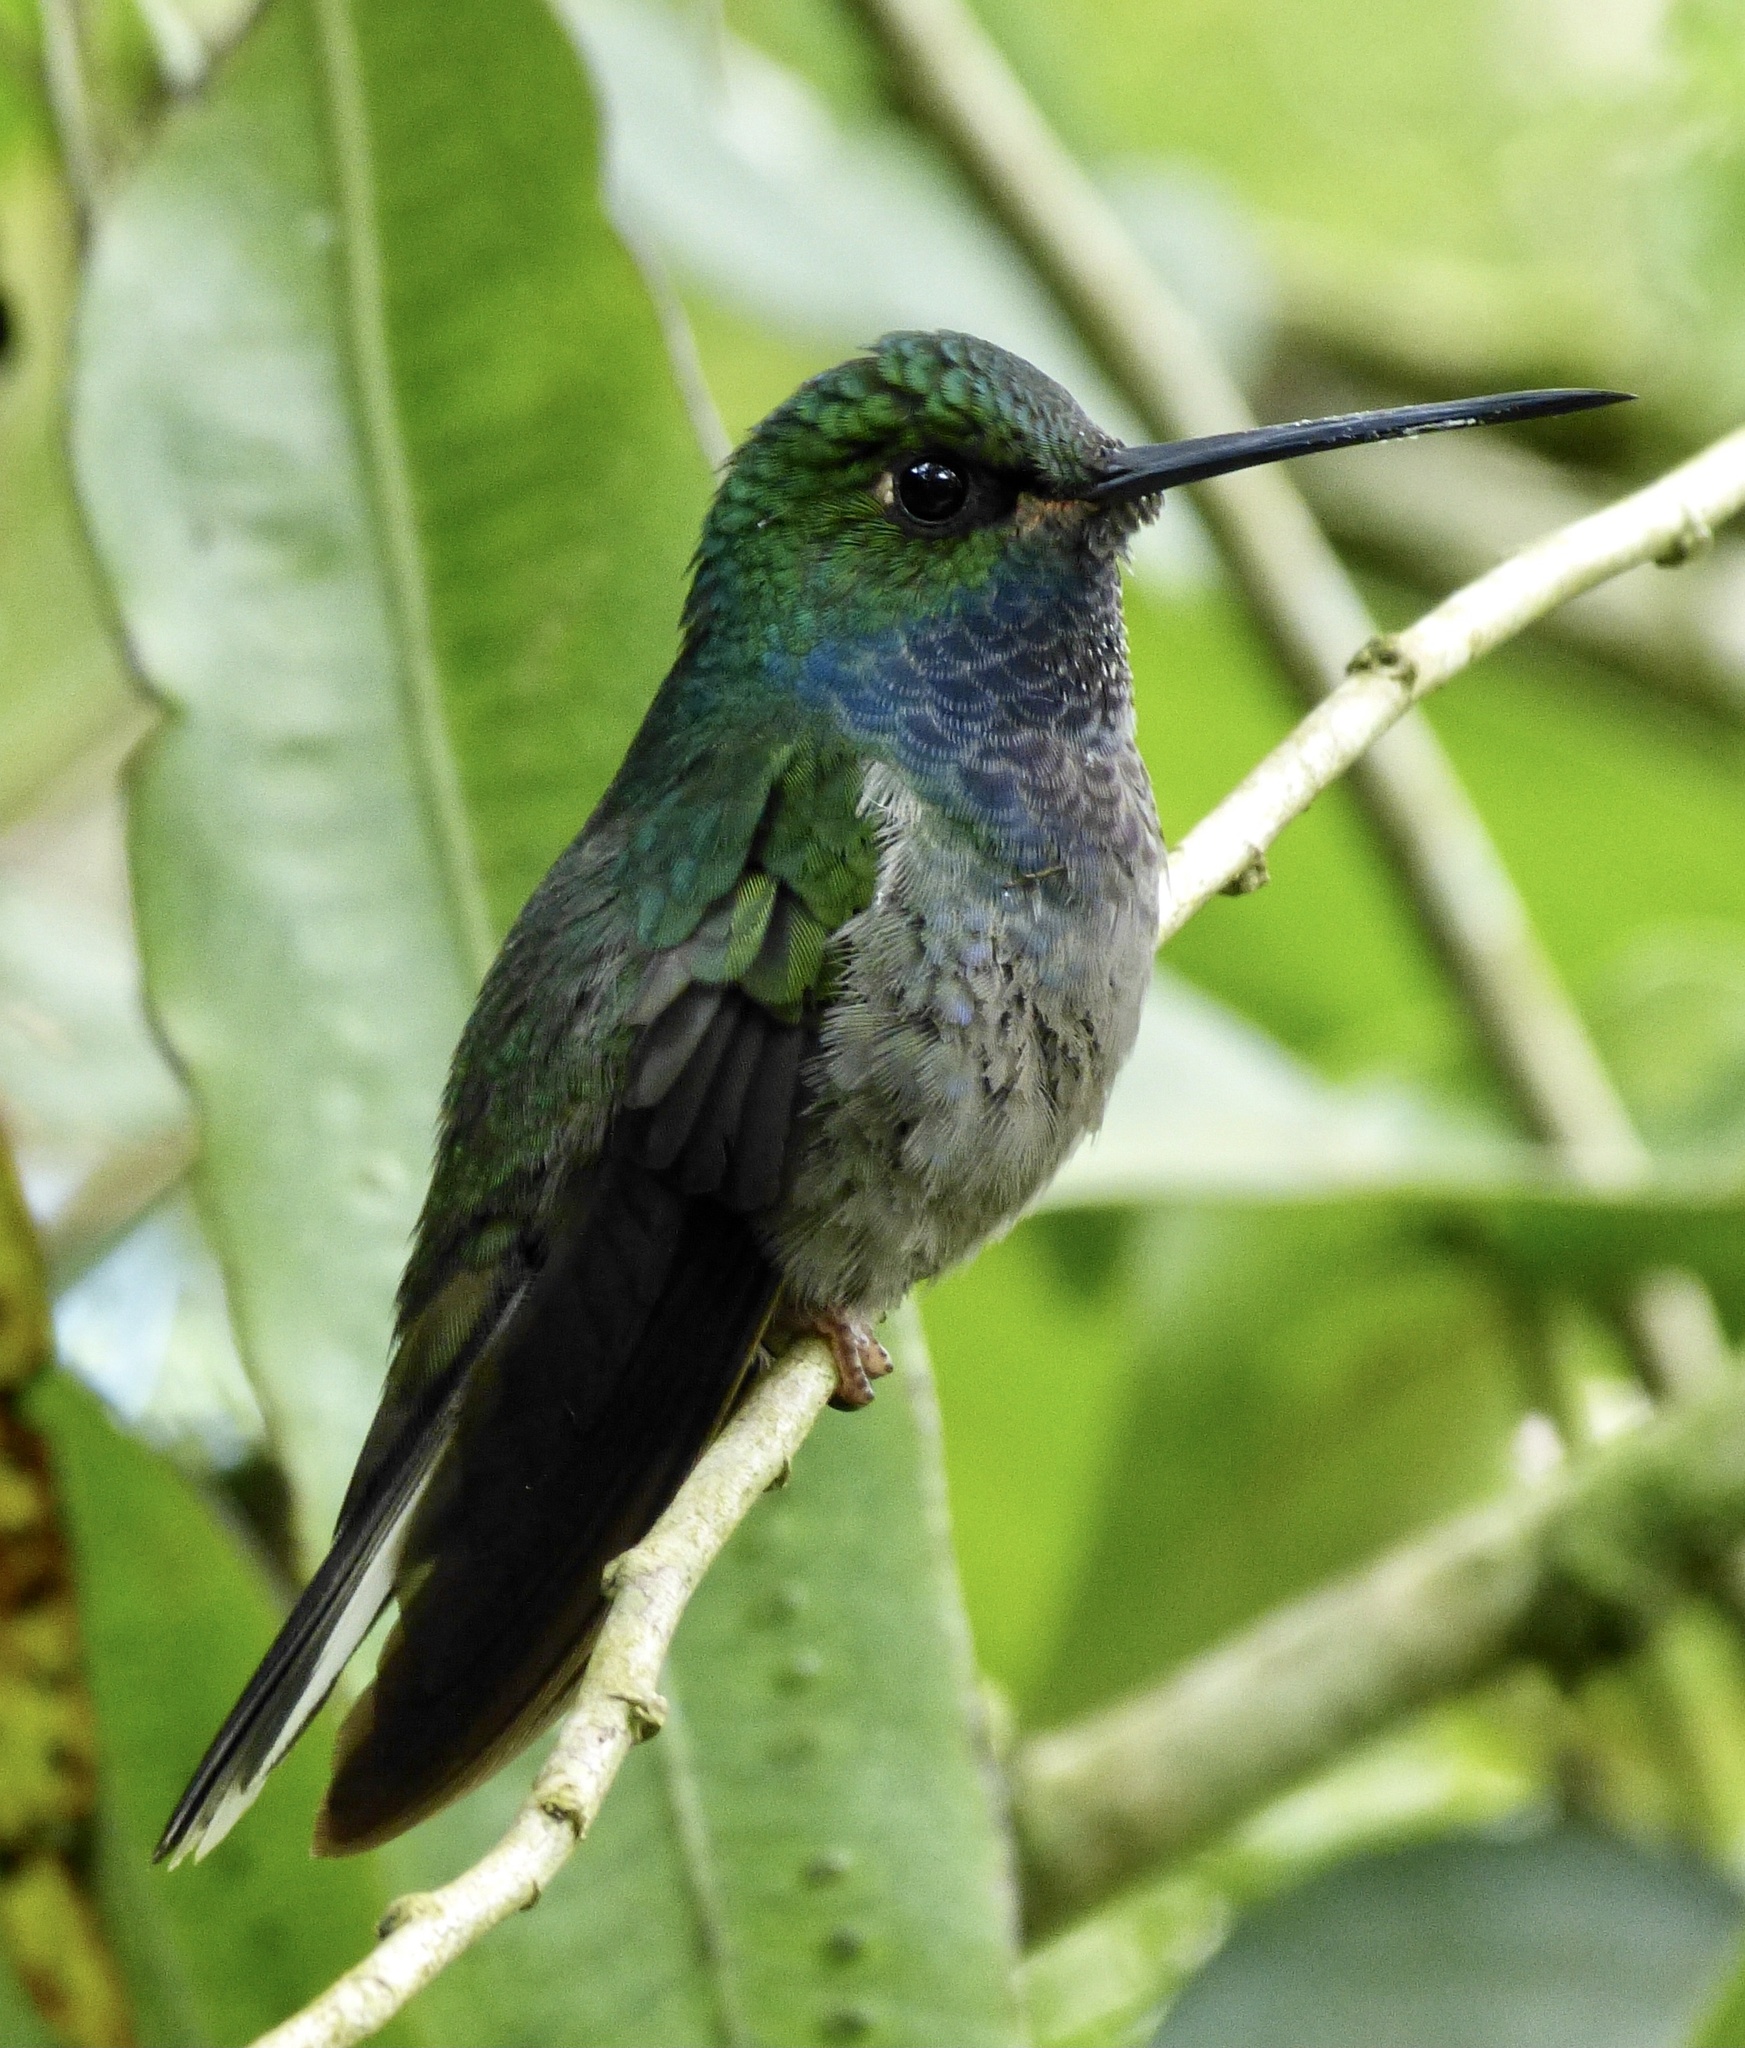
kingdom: Animalia
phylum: Chordata
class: Aves
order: Apodiformes
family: Trochilidae
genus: Urochroa
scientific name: Urochroa leucura
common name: Green-backed hillstar
